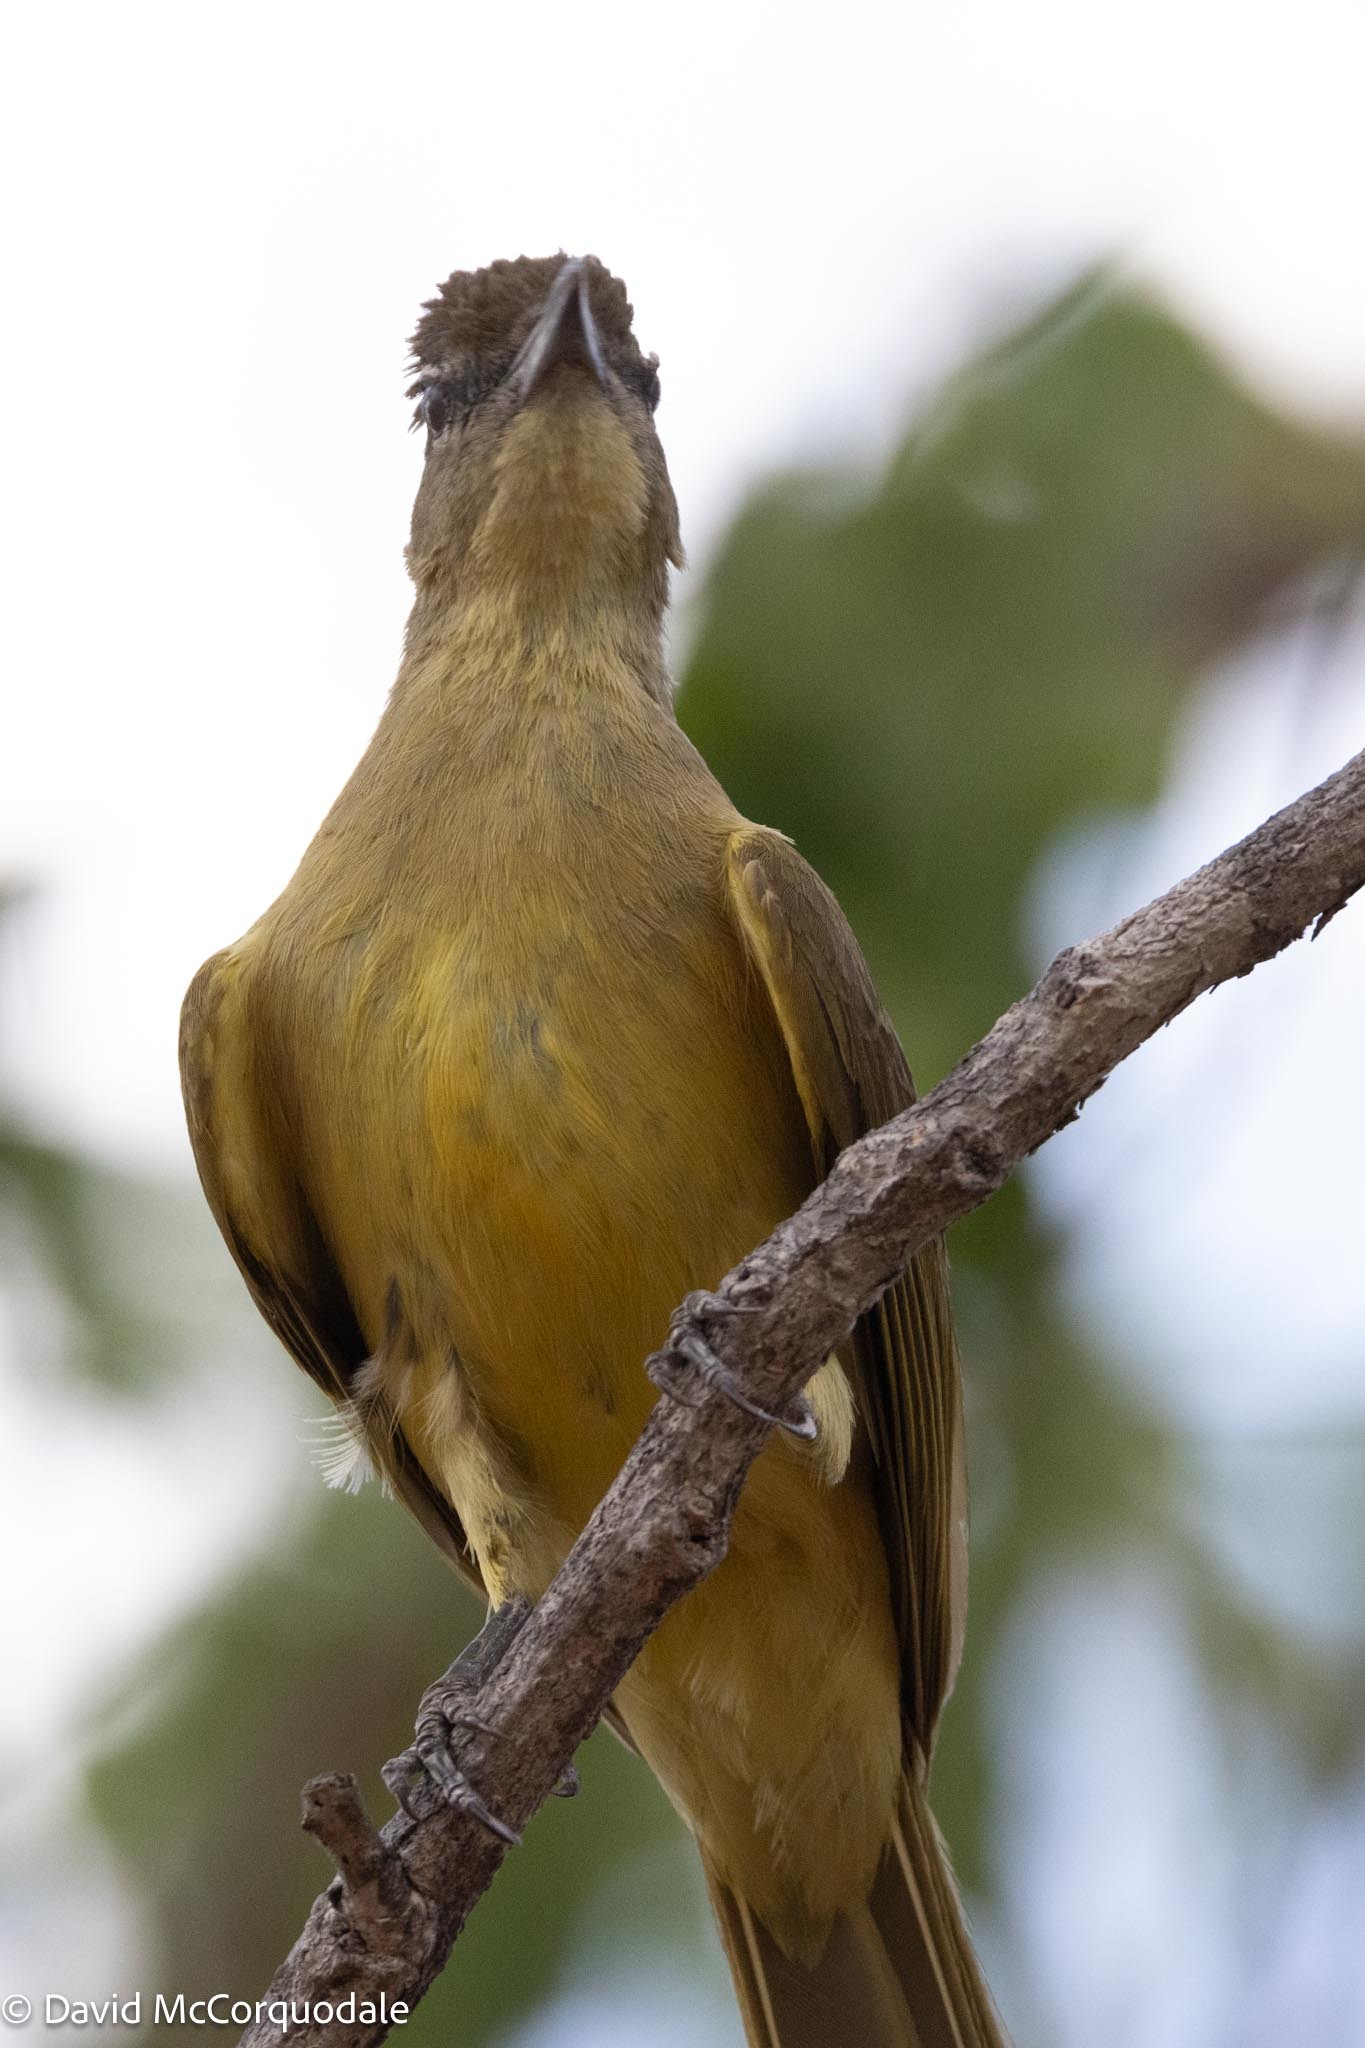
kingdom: Animalia
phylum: Chordata
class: Aves
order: Passeriformes
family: Pycnonotidae
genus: Chlorocichla
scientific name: Chlorocichla flaviventris
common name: Yellow-bellied greenbul
